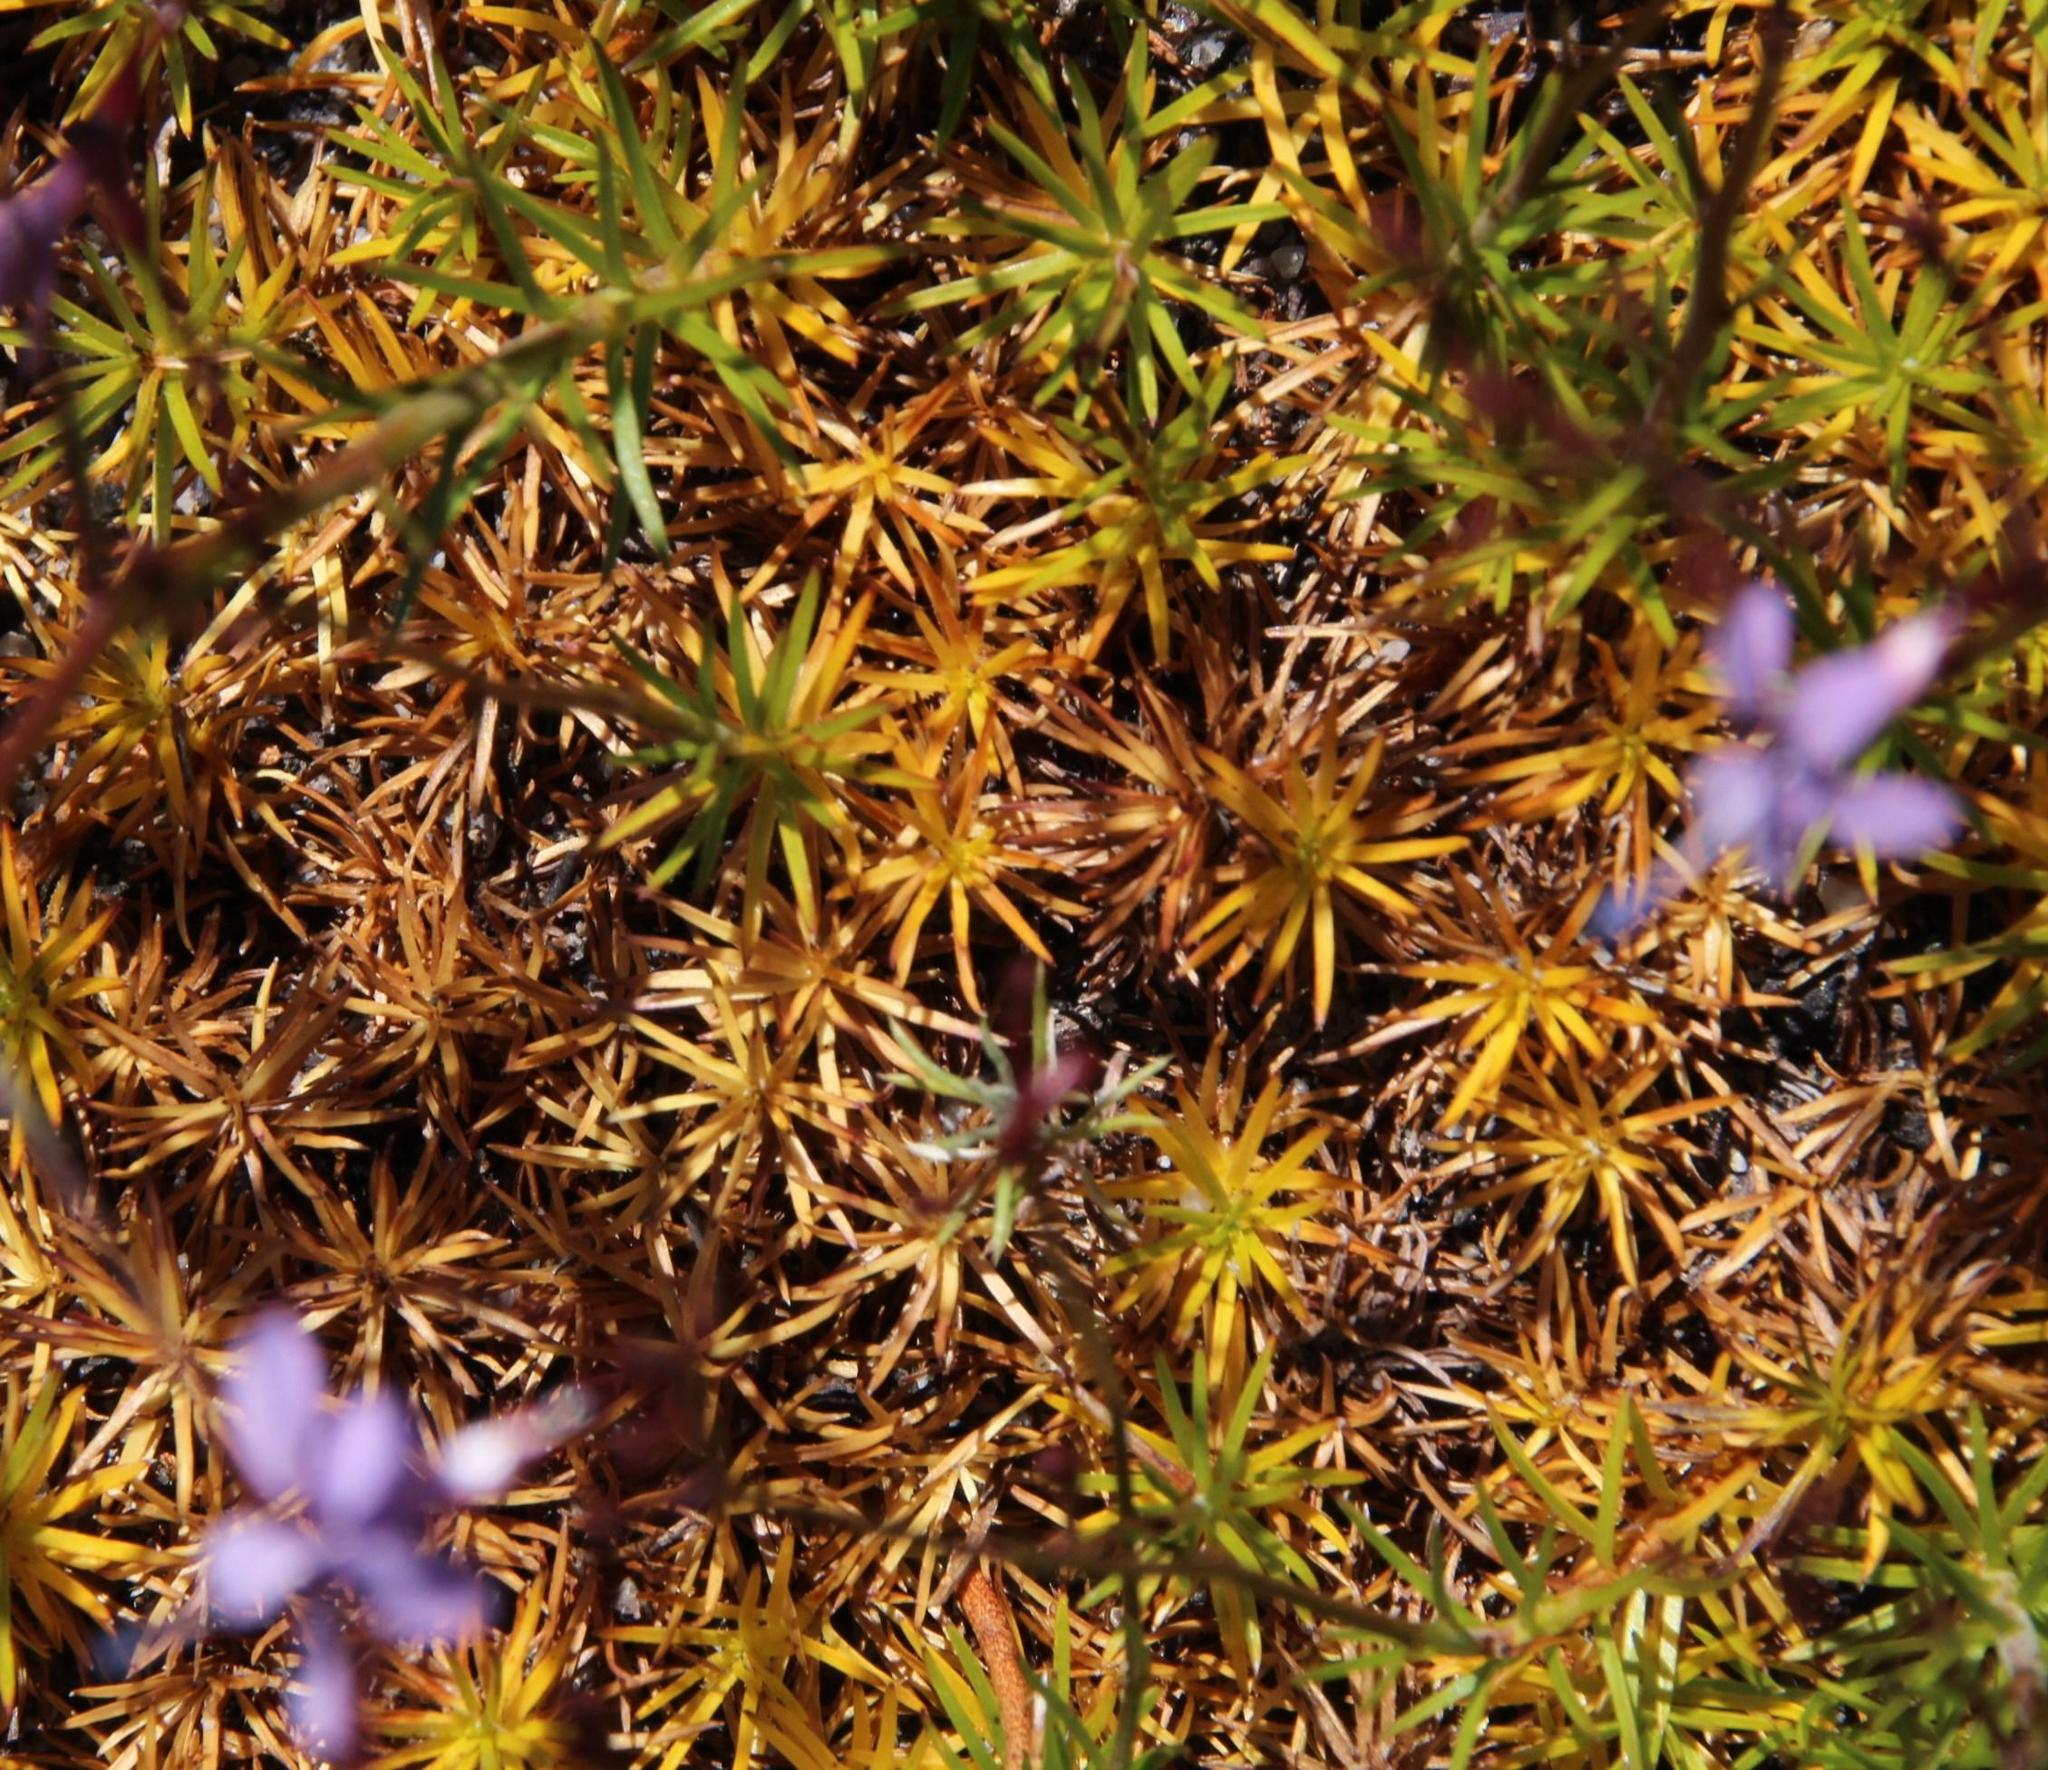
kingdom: Plantae
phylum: Tracheophyta
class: Magnoliopsida
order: Asterales
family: Campanulaceae
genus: Prismatocarpus
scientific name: Prismatocarpus diffusus
